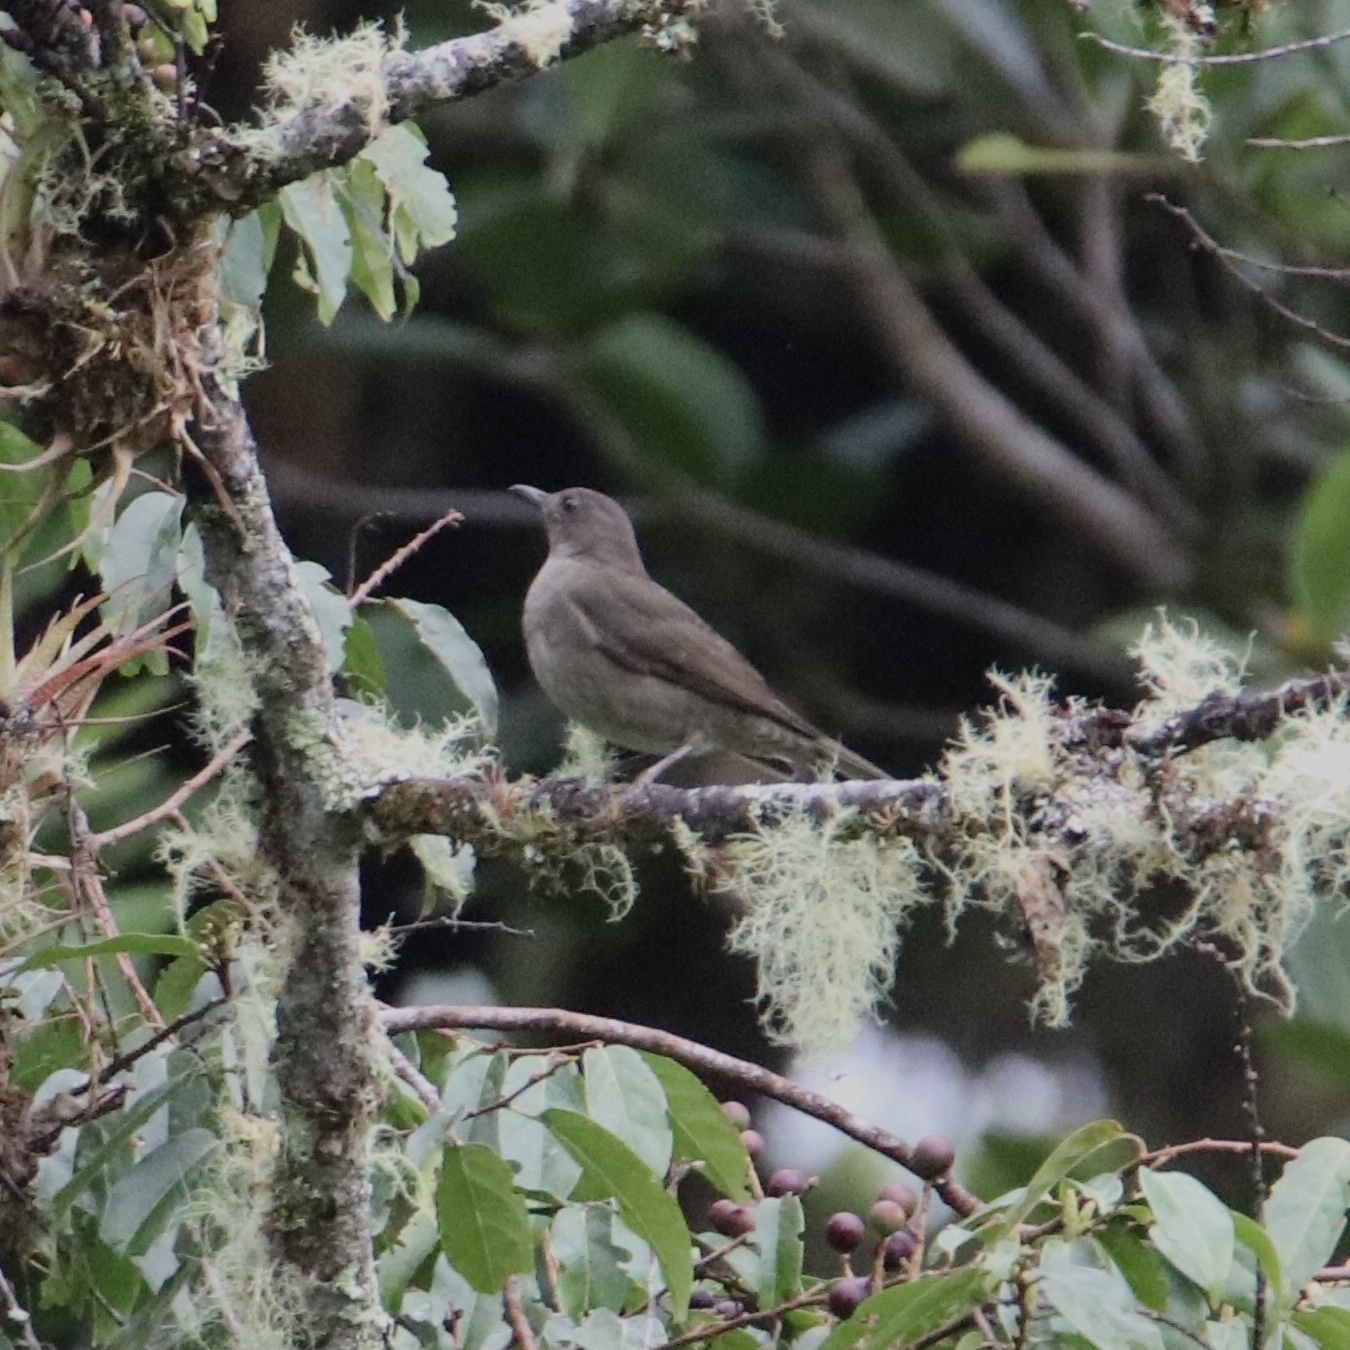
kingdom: Animalia
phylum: Chordata
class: Aves
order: Passeriformes
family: Turdidae
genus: Turdus
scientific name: Turdus plebejus
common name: Mountain thrush
